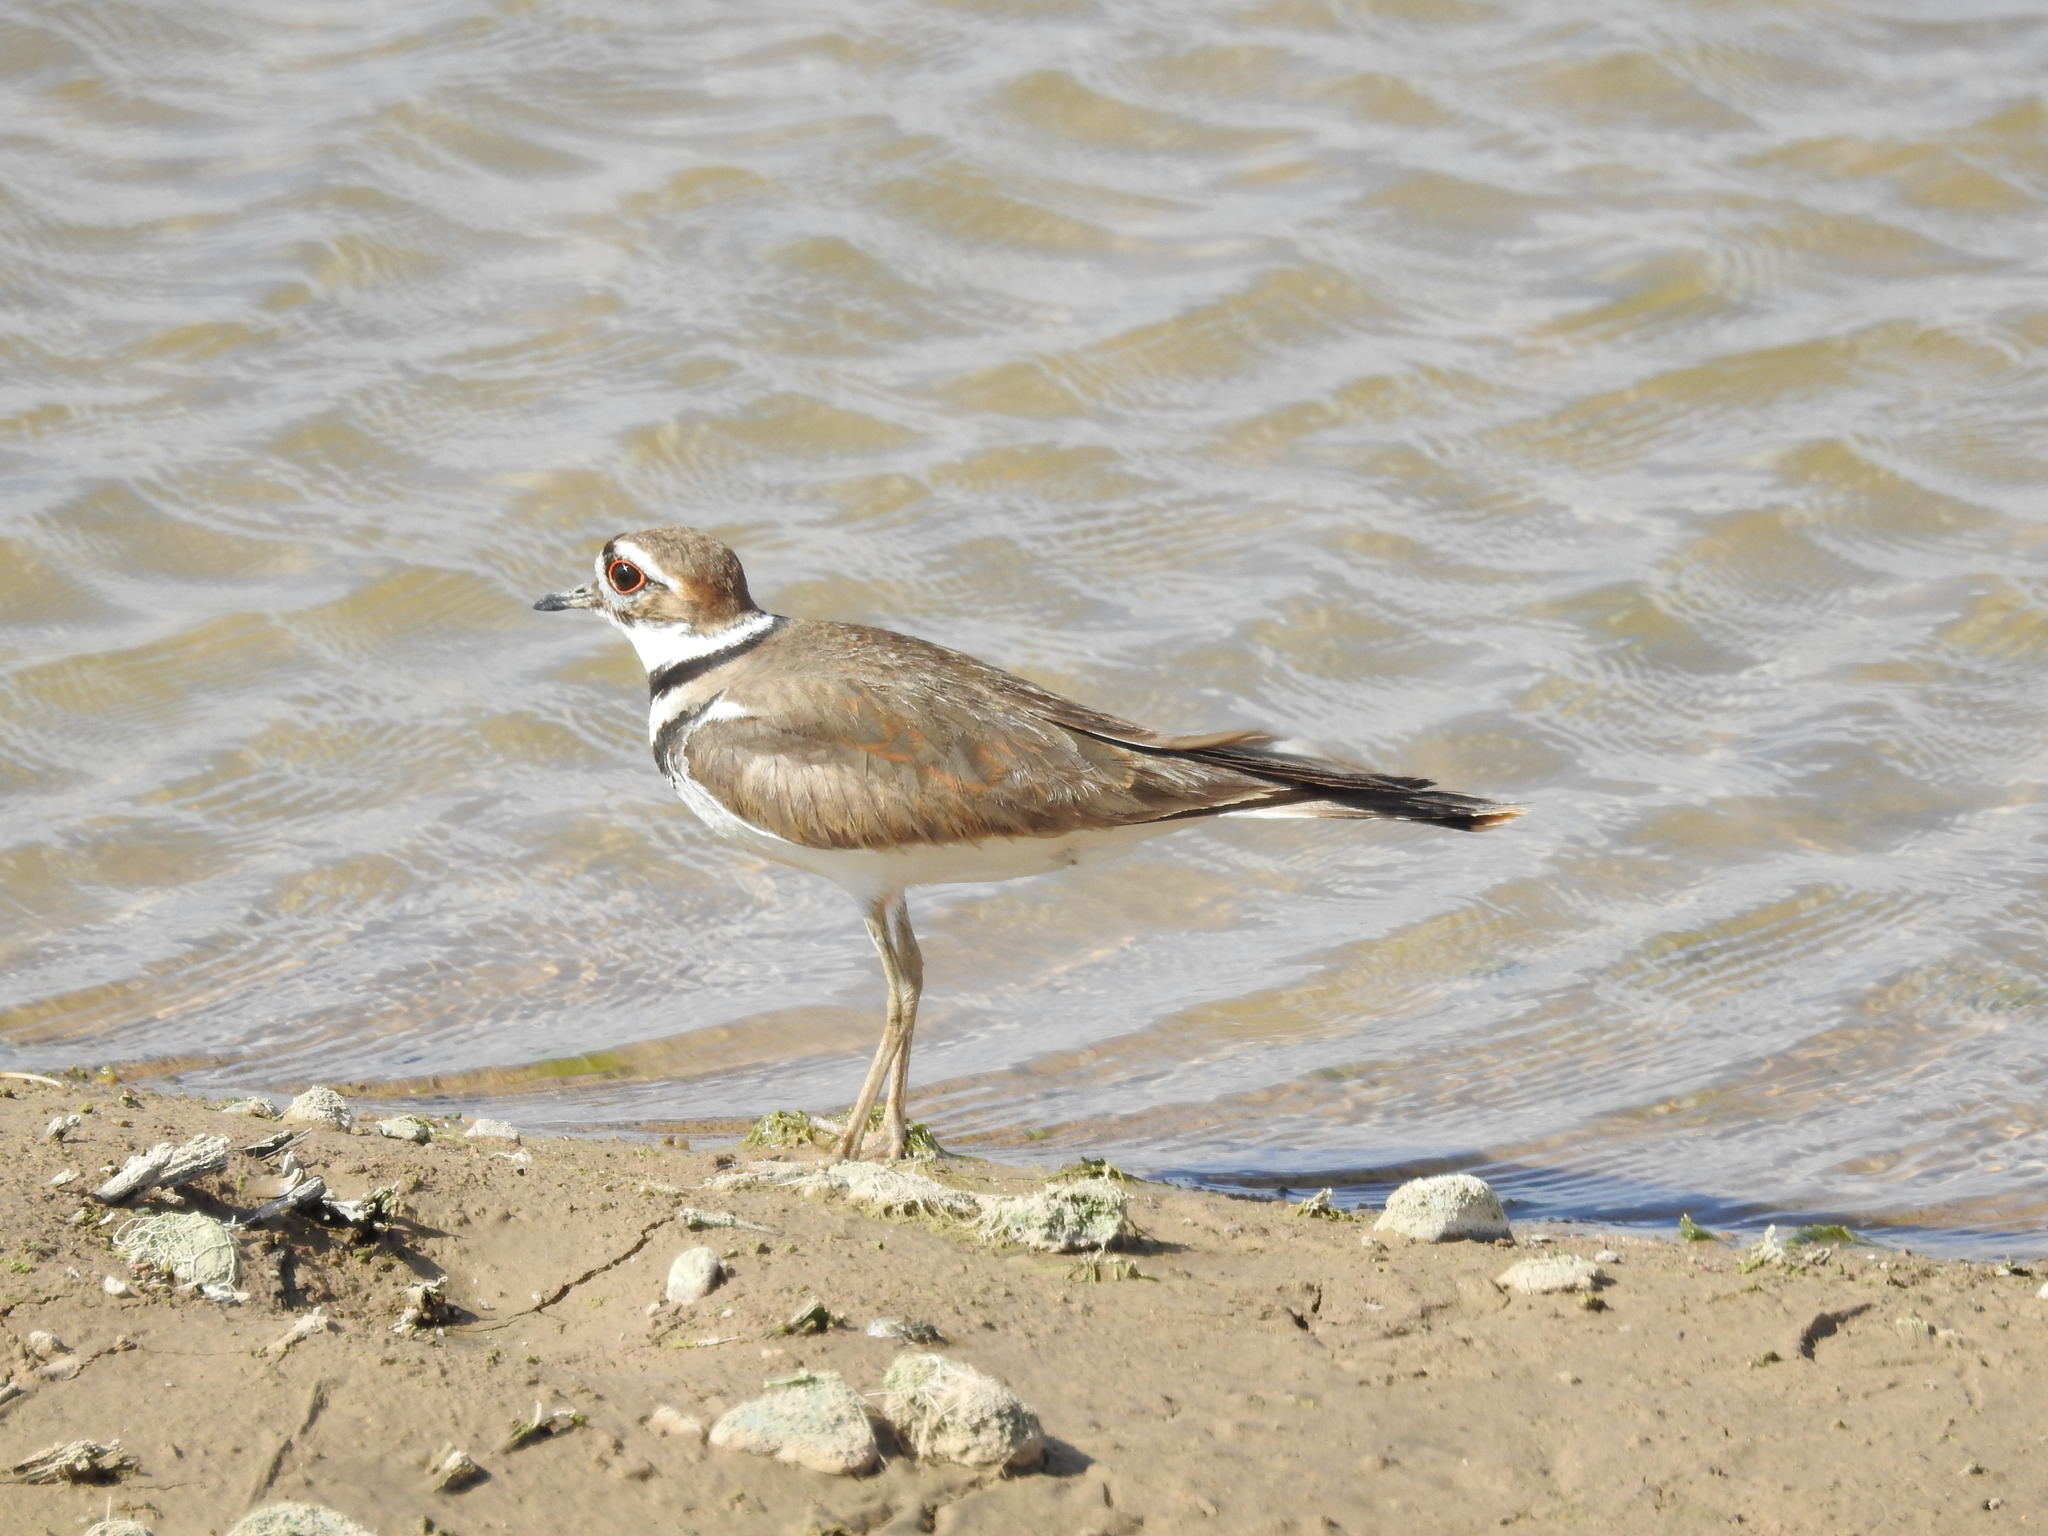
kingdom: Animalia
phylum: Chordata
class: Aves
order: Charadriiformes
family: Charadriidae
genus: Charadrius
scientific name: Charadrius vociferus
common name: Killdeer
